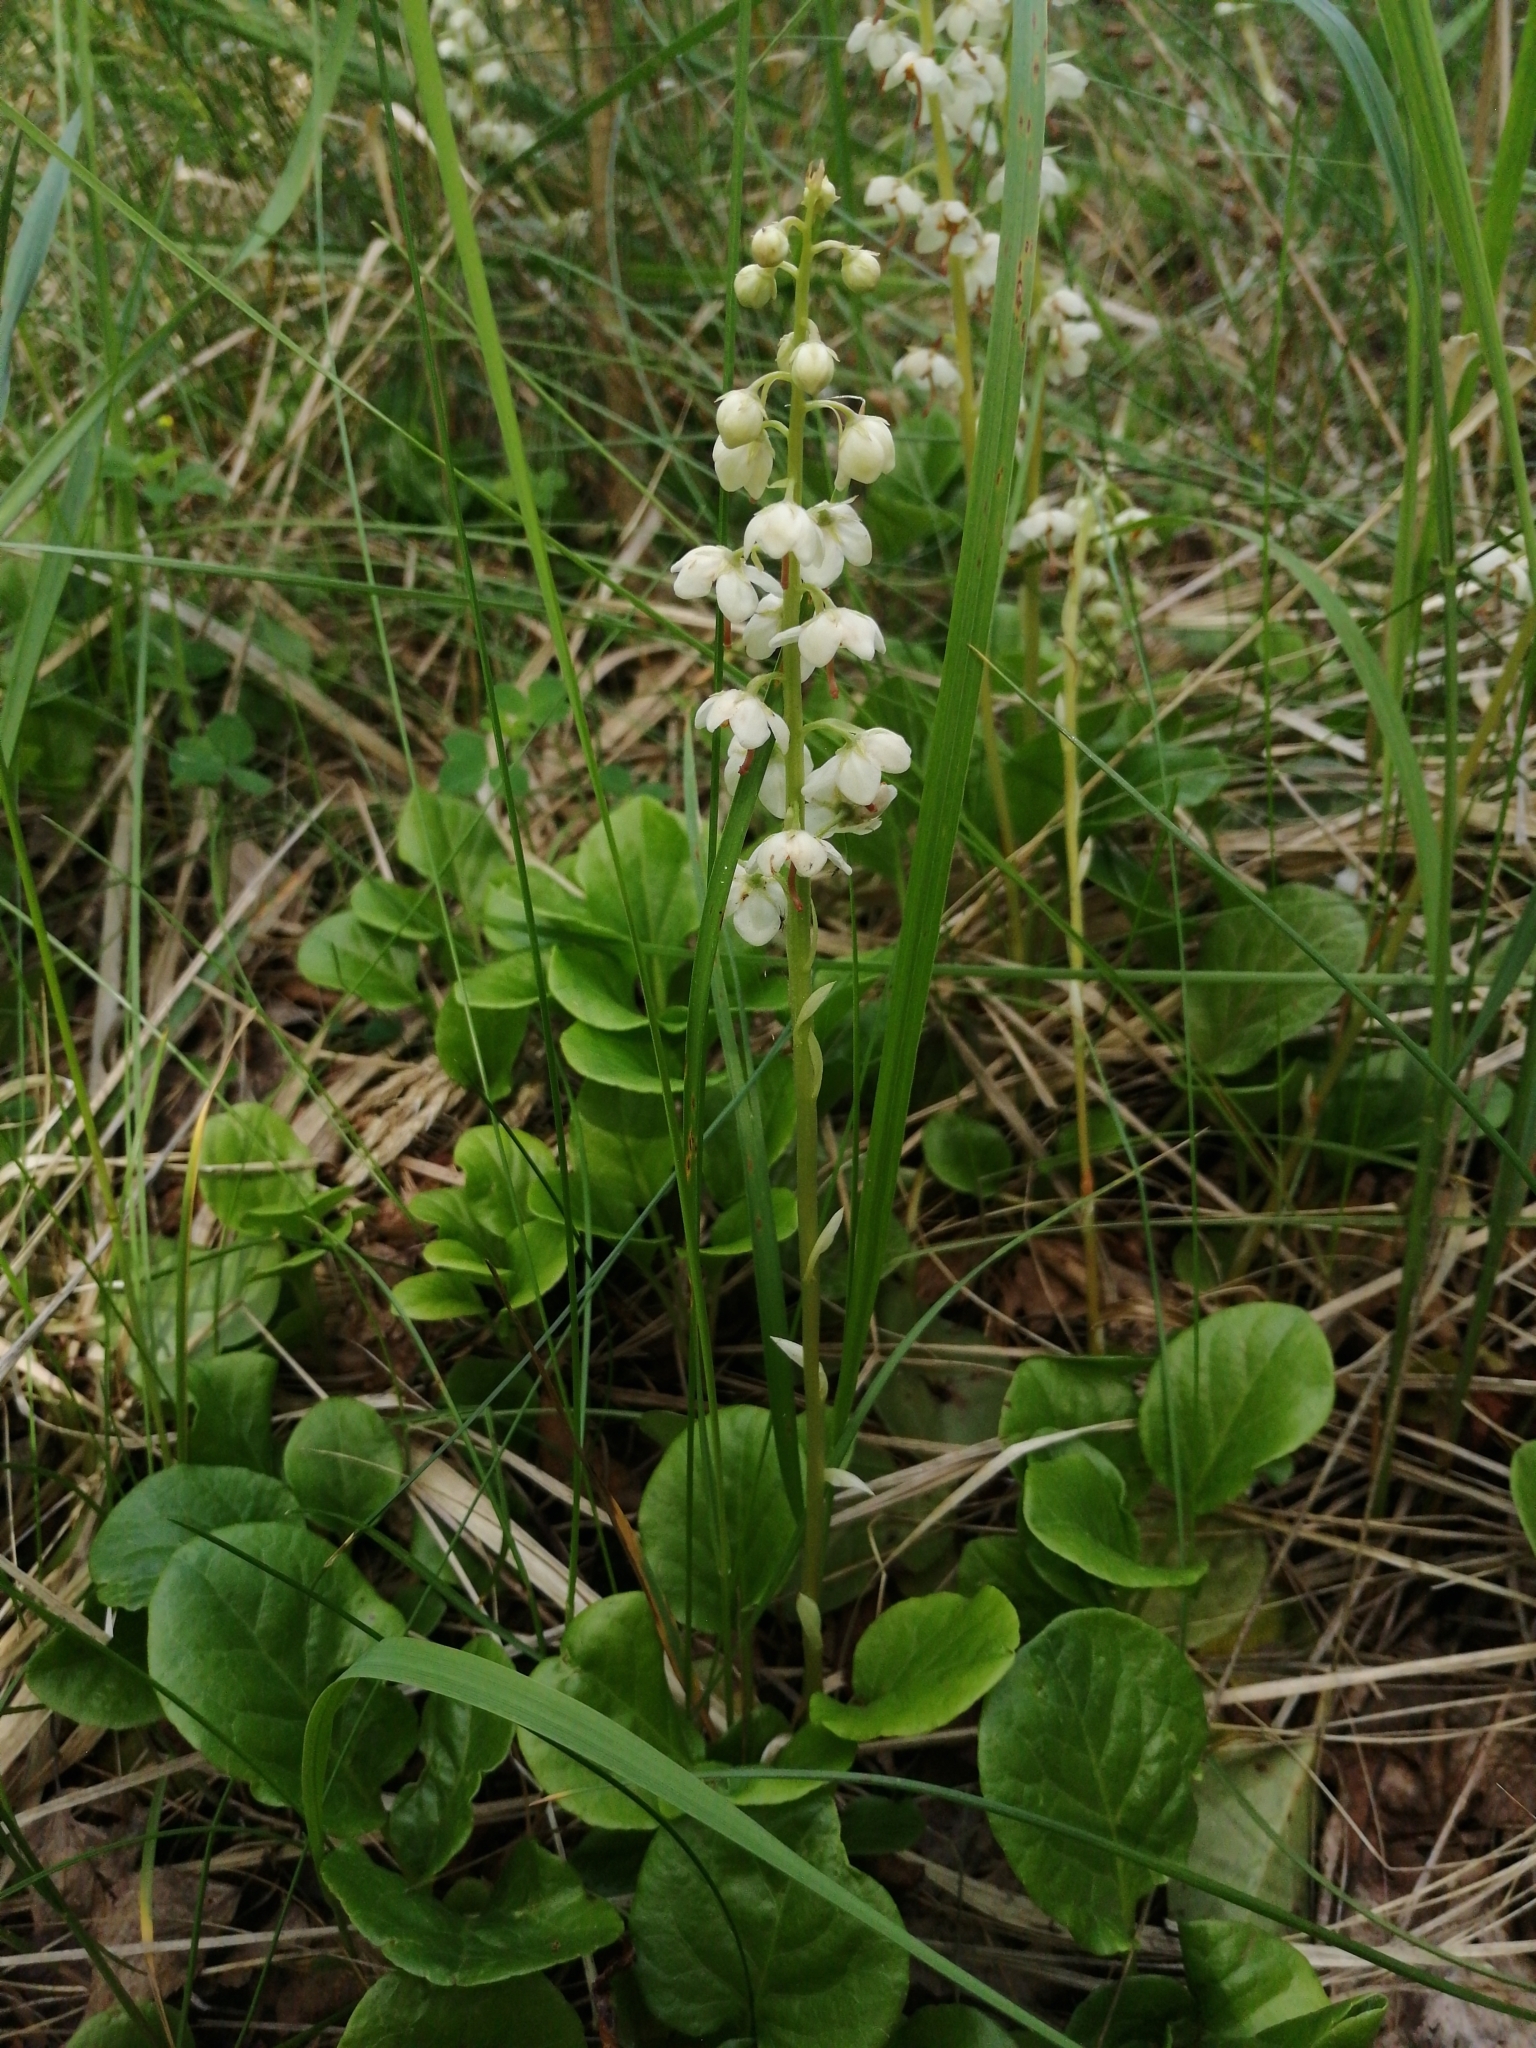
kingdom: Plantae
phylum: Tracheophyta
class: Magnoliopsida
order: Ericales
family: Ericaceae
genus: Pyrola
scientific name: Pyrola rotundifolia
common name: Round-leaved wintergreen
